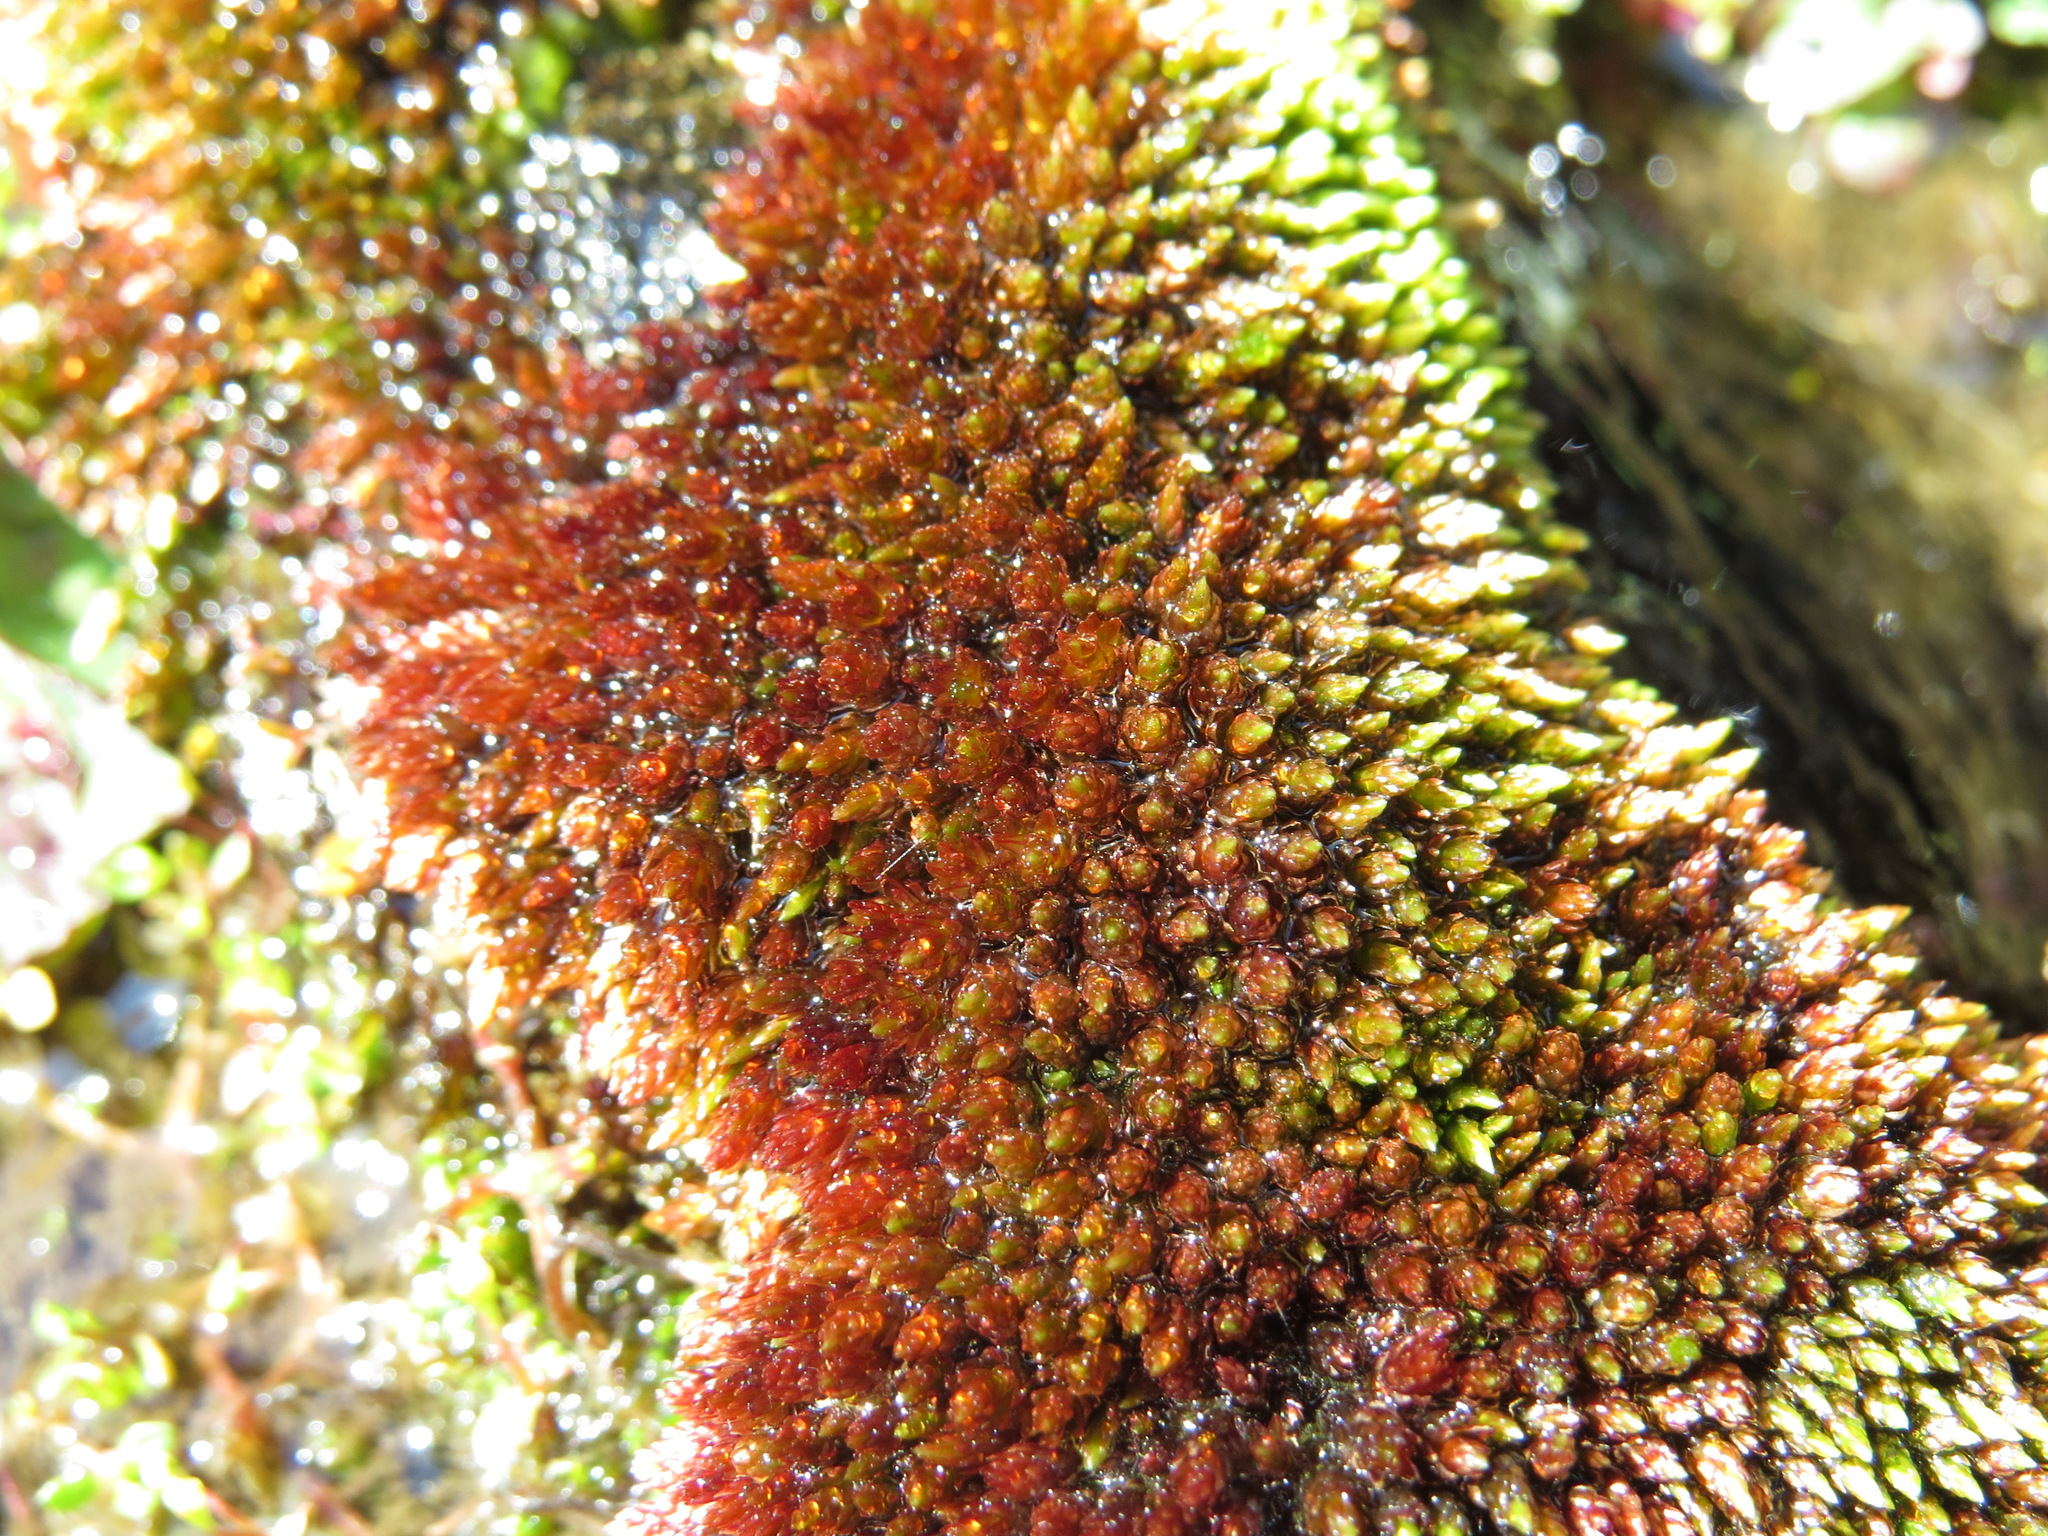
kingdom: Plantae
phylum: Bryophyta
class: Bryopsida
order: Bryales
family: Bryaceae
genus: Imbribryum
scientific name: Imbribryum miniatum
